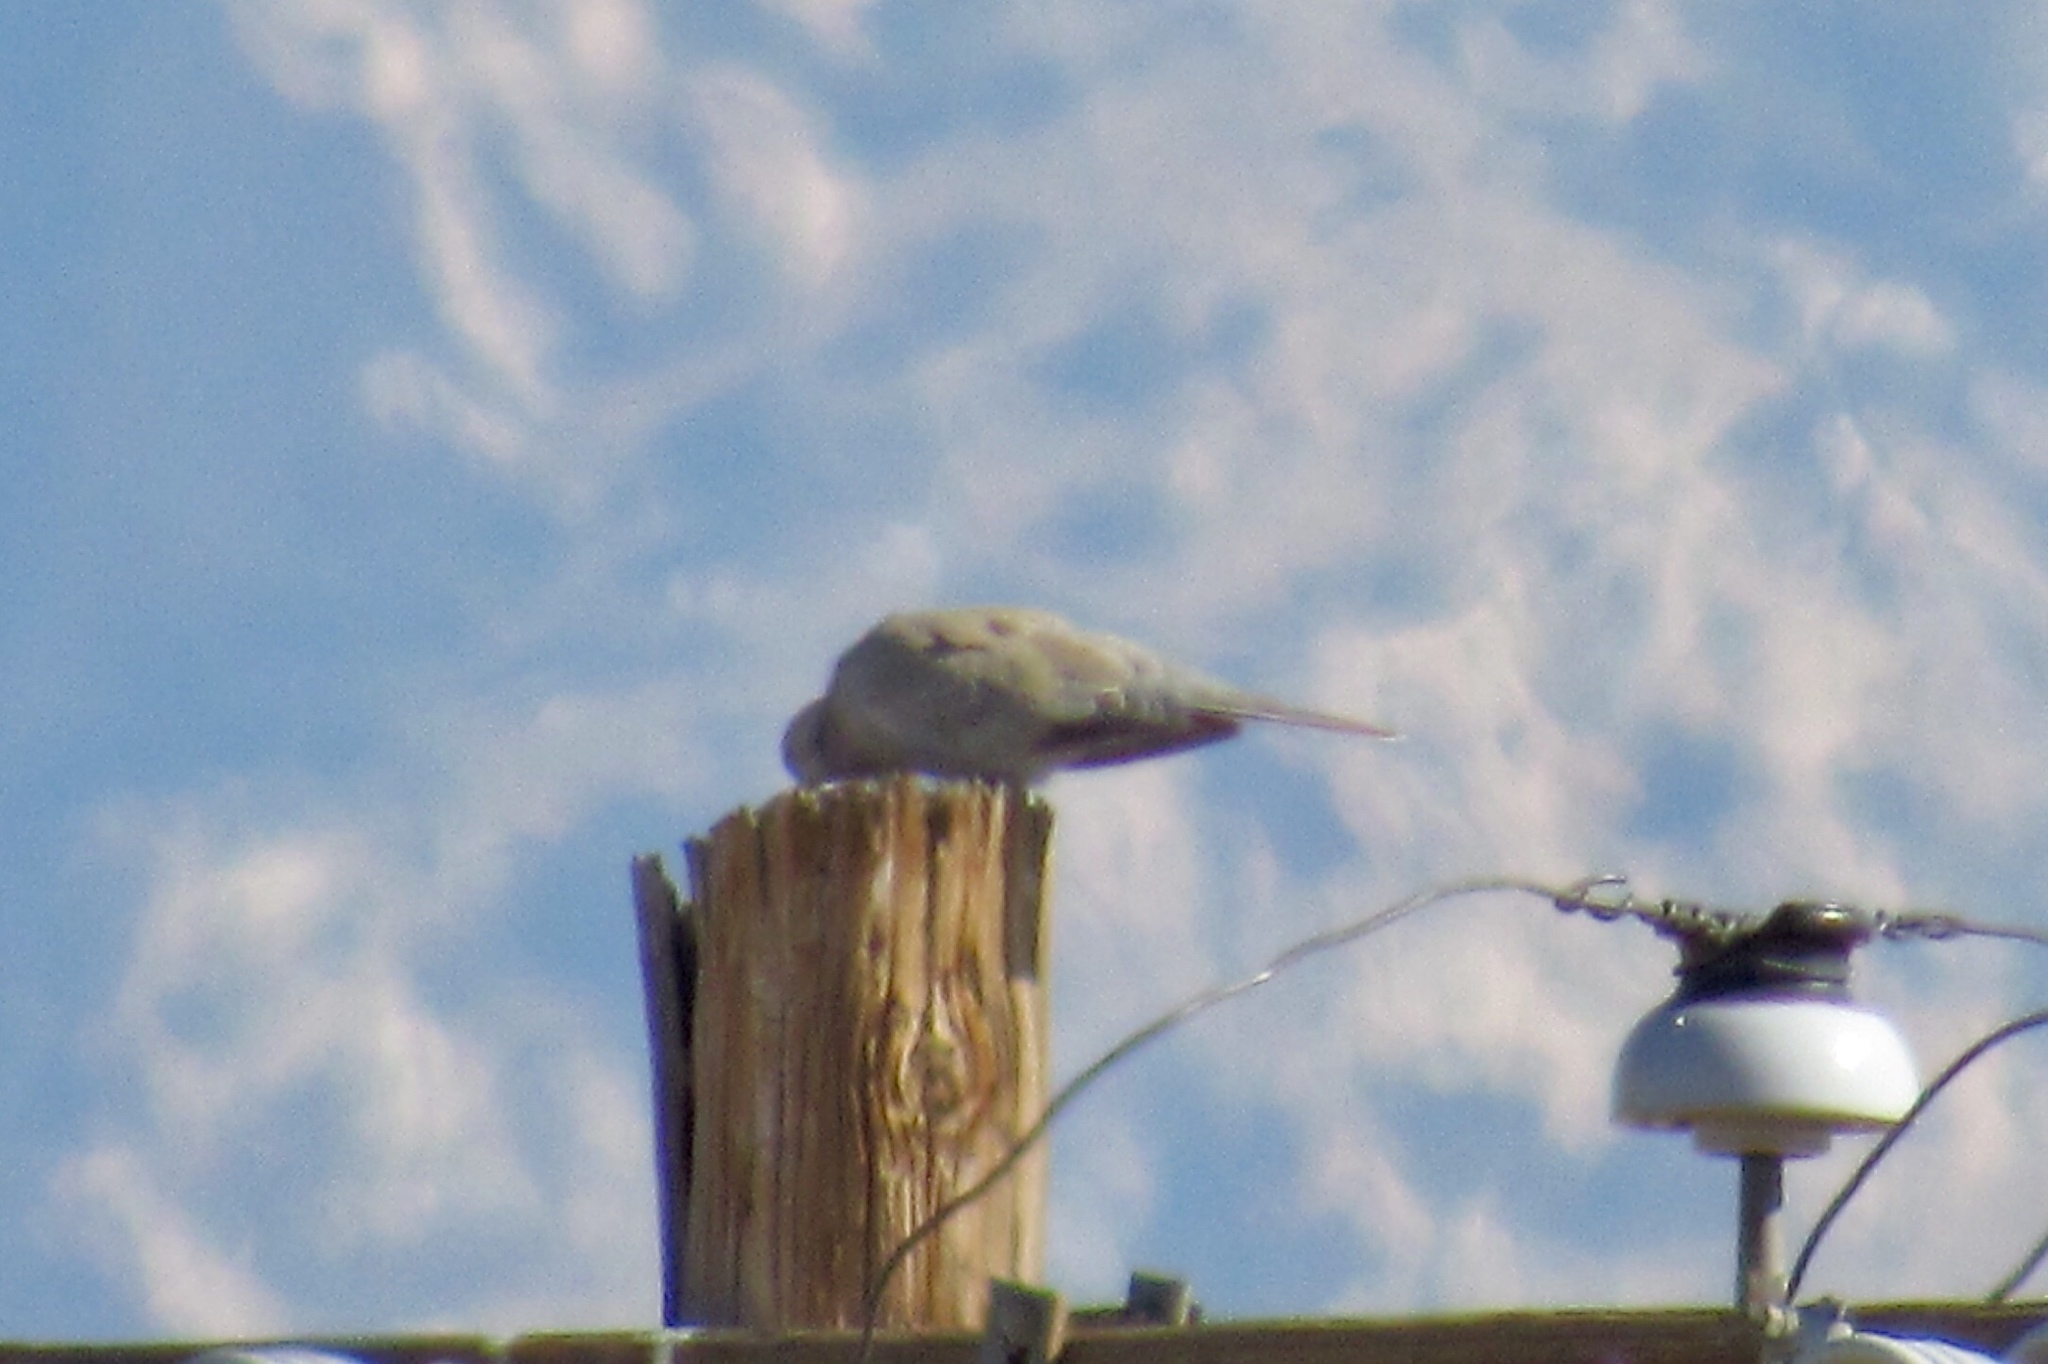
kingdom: Animalia
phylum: Chordata
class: Aves
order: Columbiformes
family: Columbidae
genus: Streptopelia
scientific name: Streptopelia decaocto
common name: Eurasian collared dove
